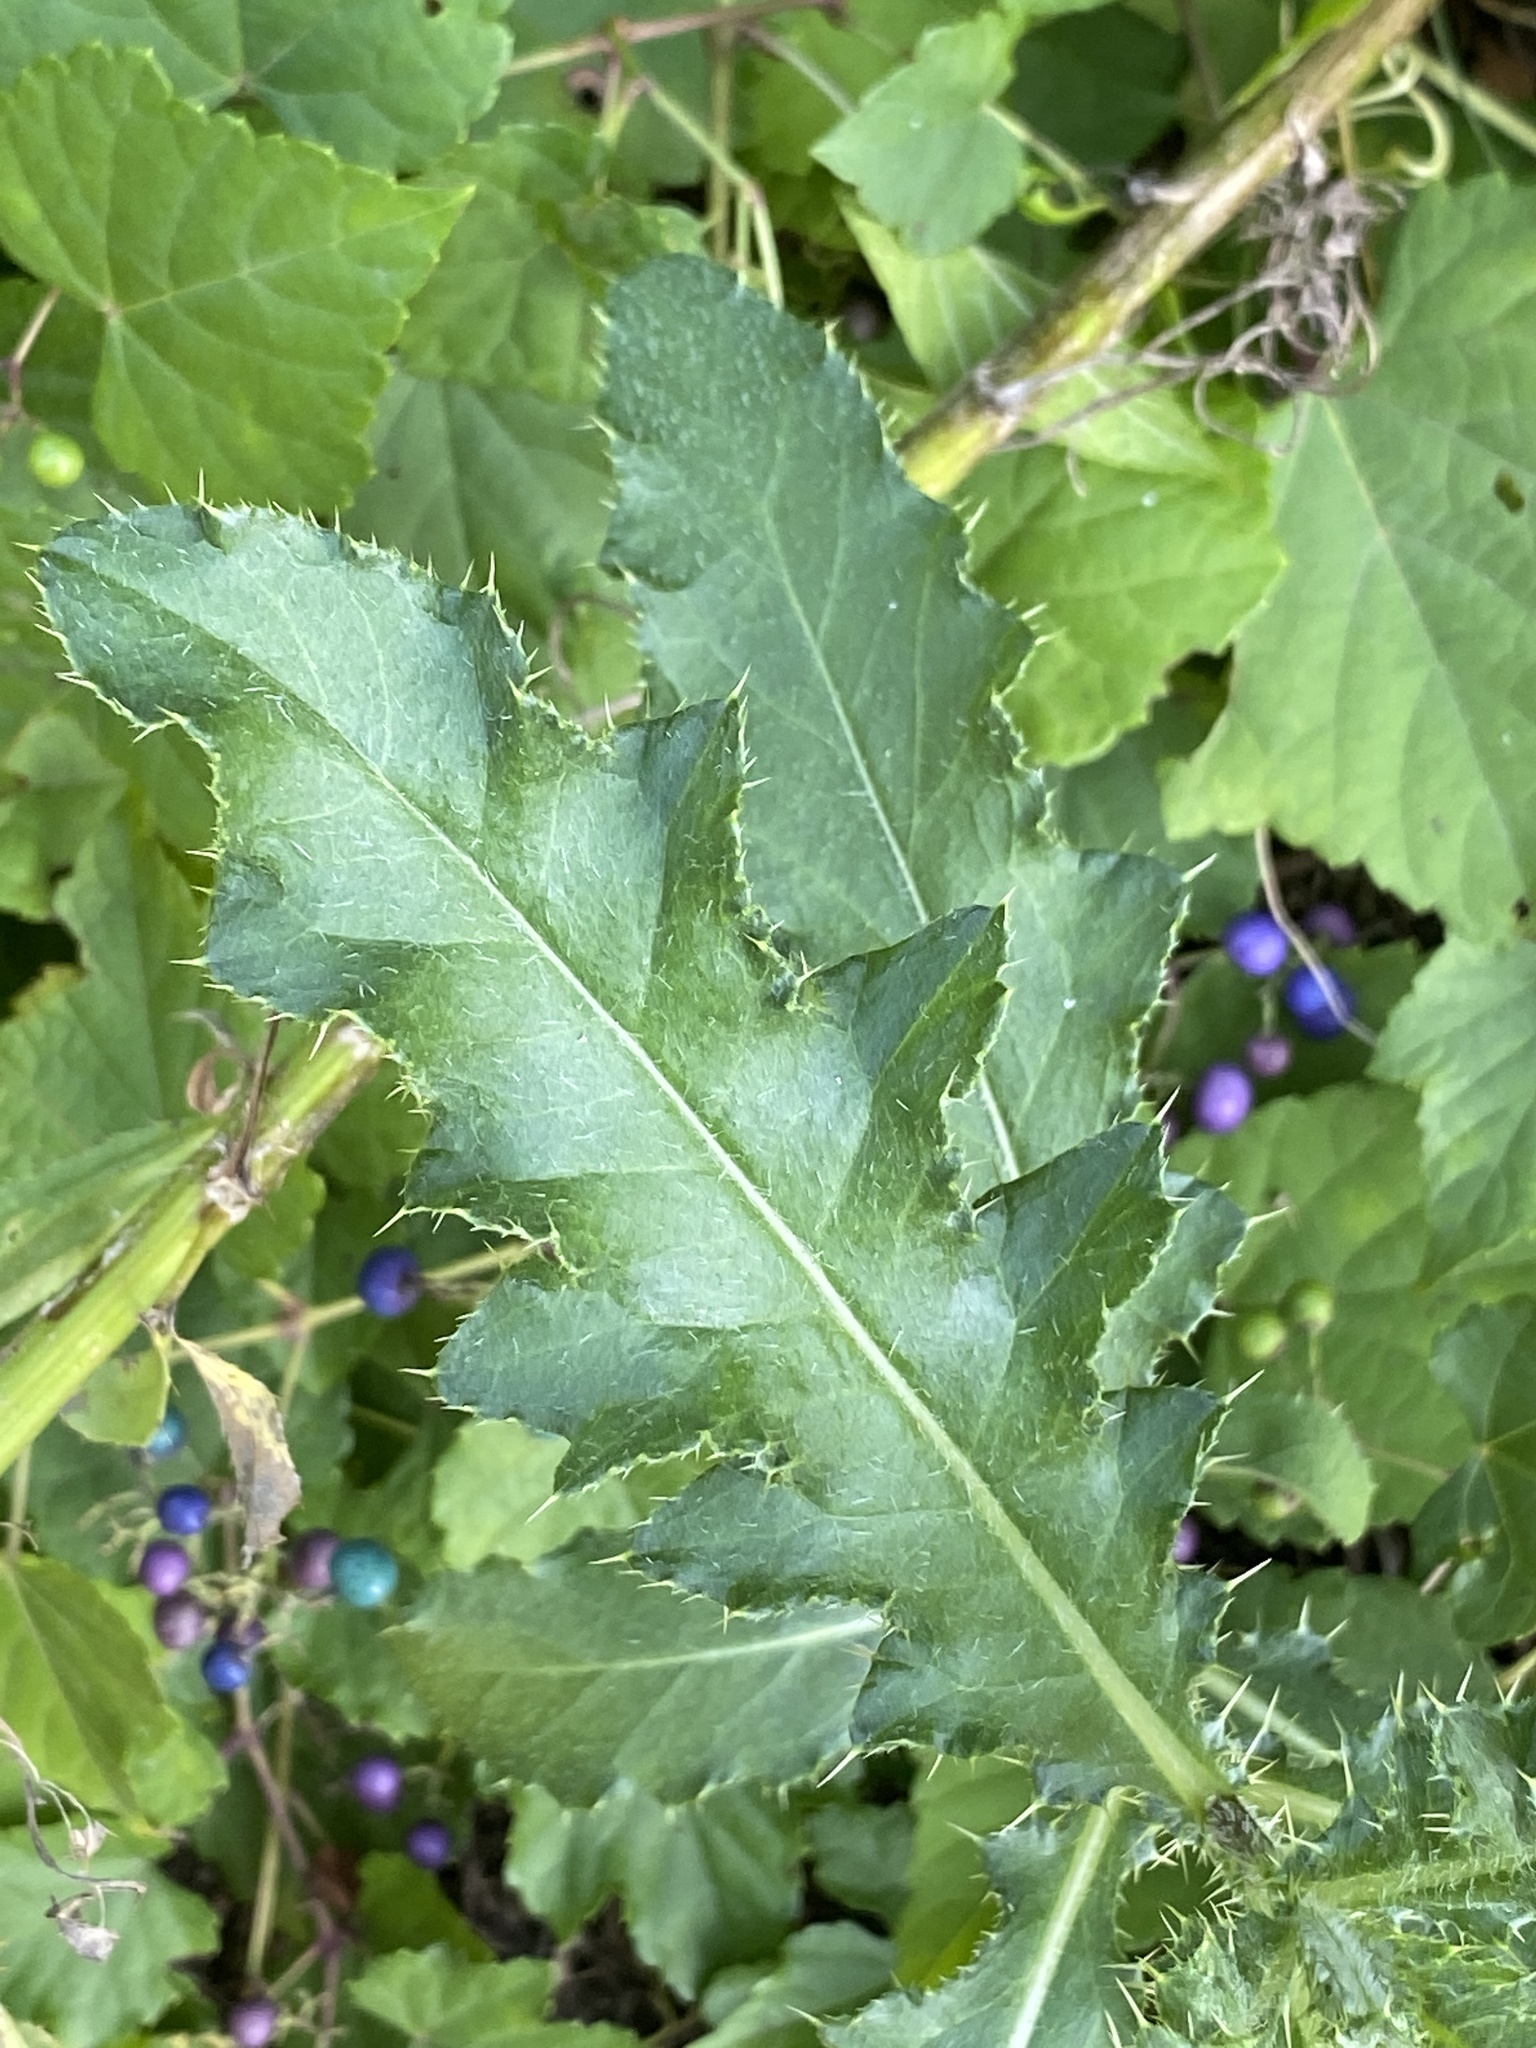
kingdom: Plantae
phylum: Tracheophyta
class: Magnoliopsida
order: Asterales
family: Asteraceae
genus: Cirsium
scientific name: Cirsium arvense
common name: Creeping thistle
